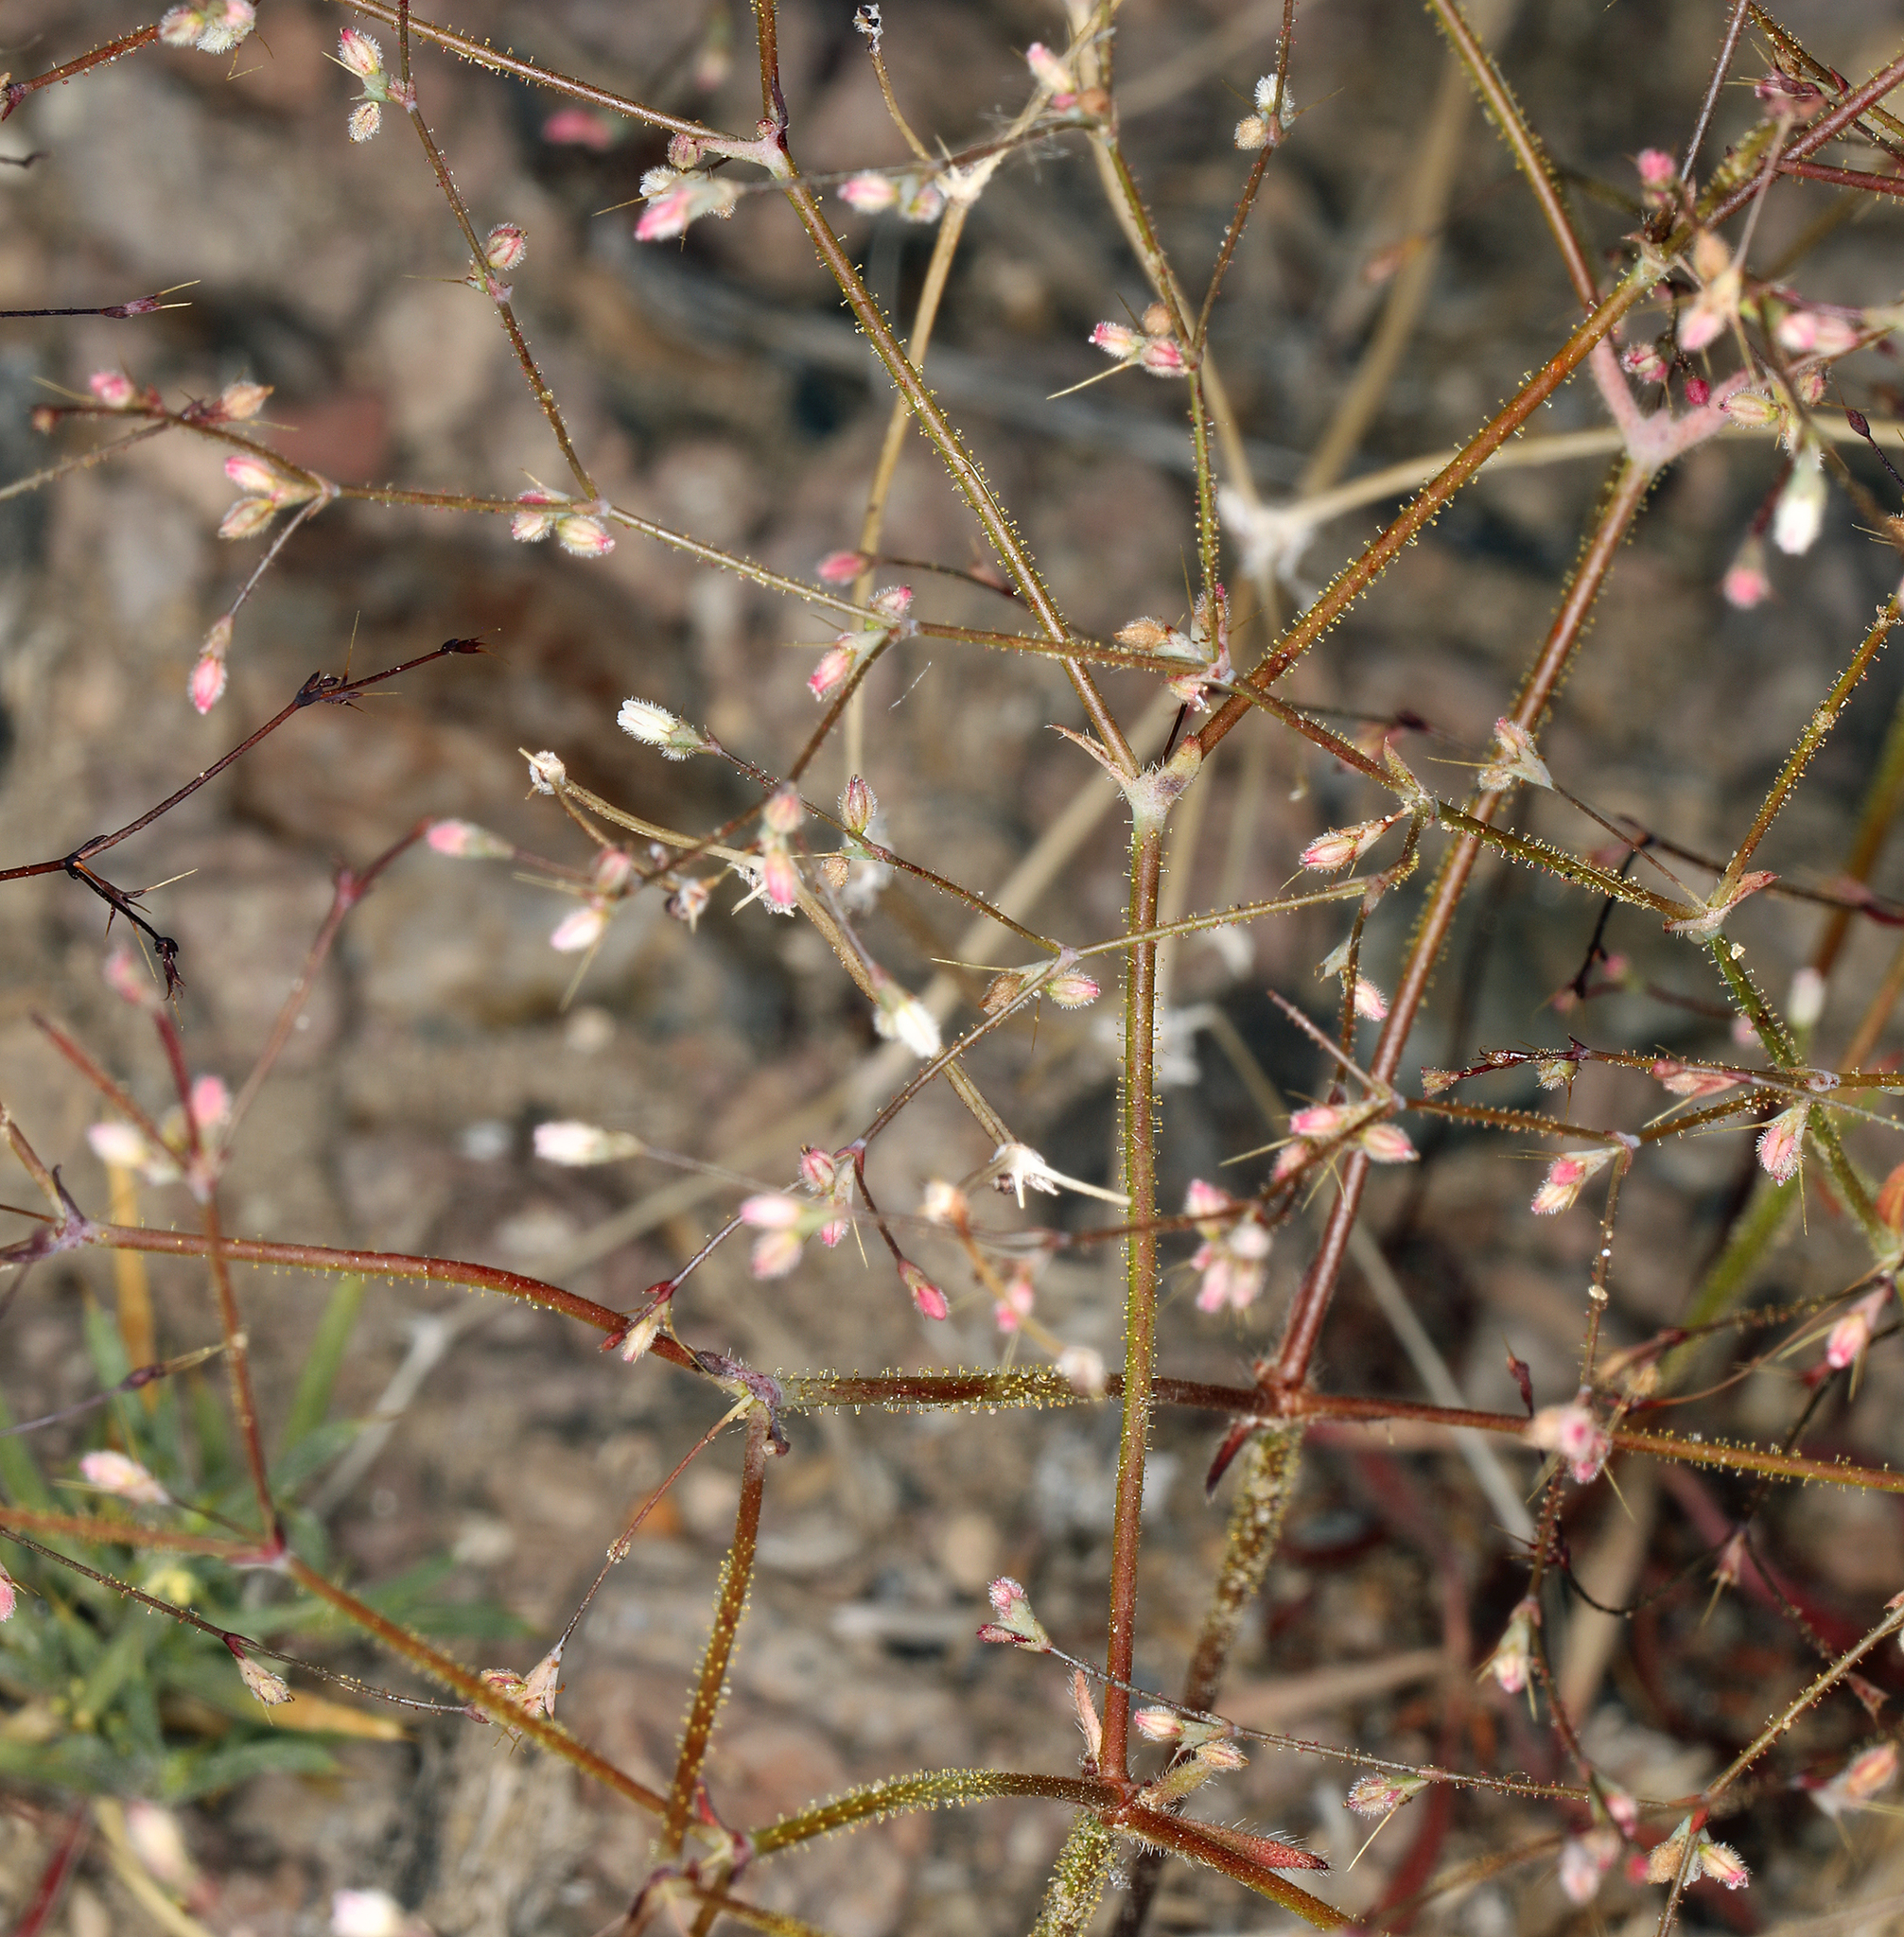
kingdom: Plantae
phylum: Tracheophyta
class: Magnoliopsida
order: Caryophyllales
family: Polygonaceae
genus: Oxytheca
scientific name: Oxytheca dendroidea
